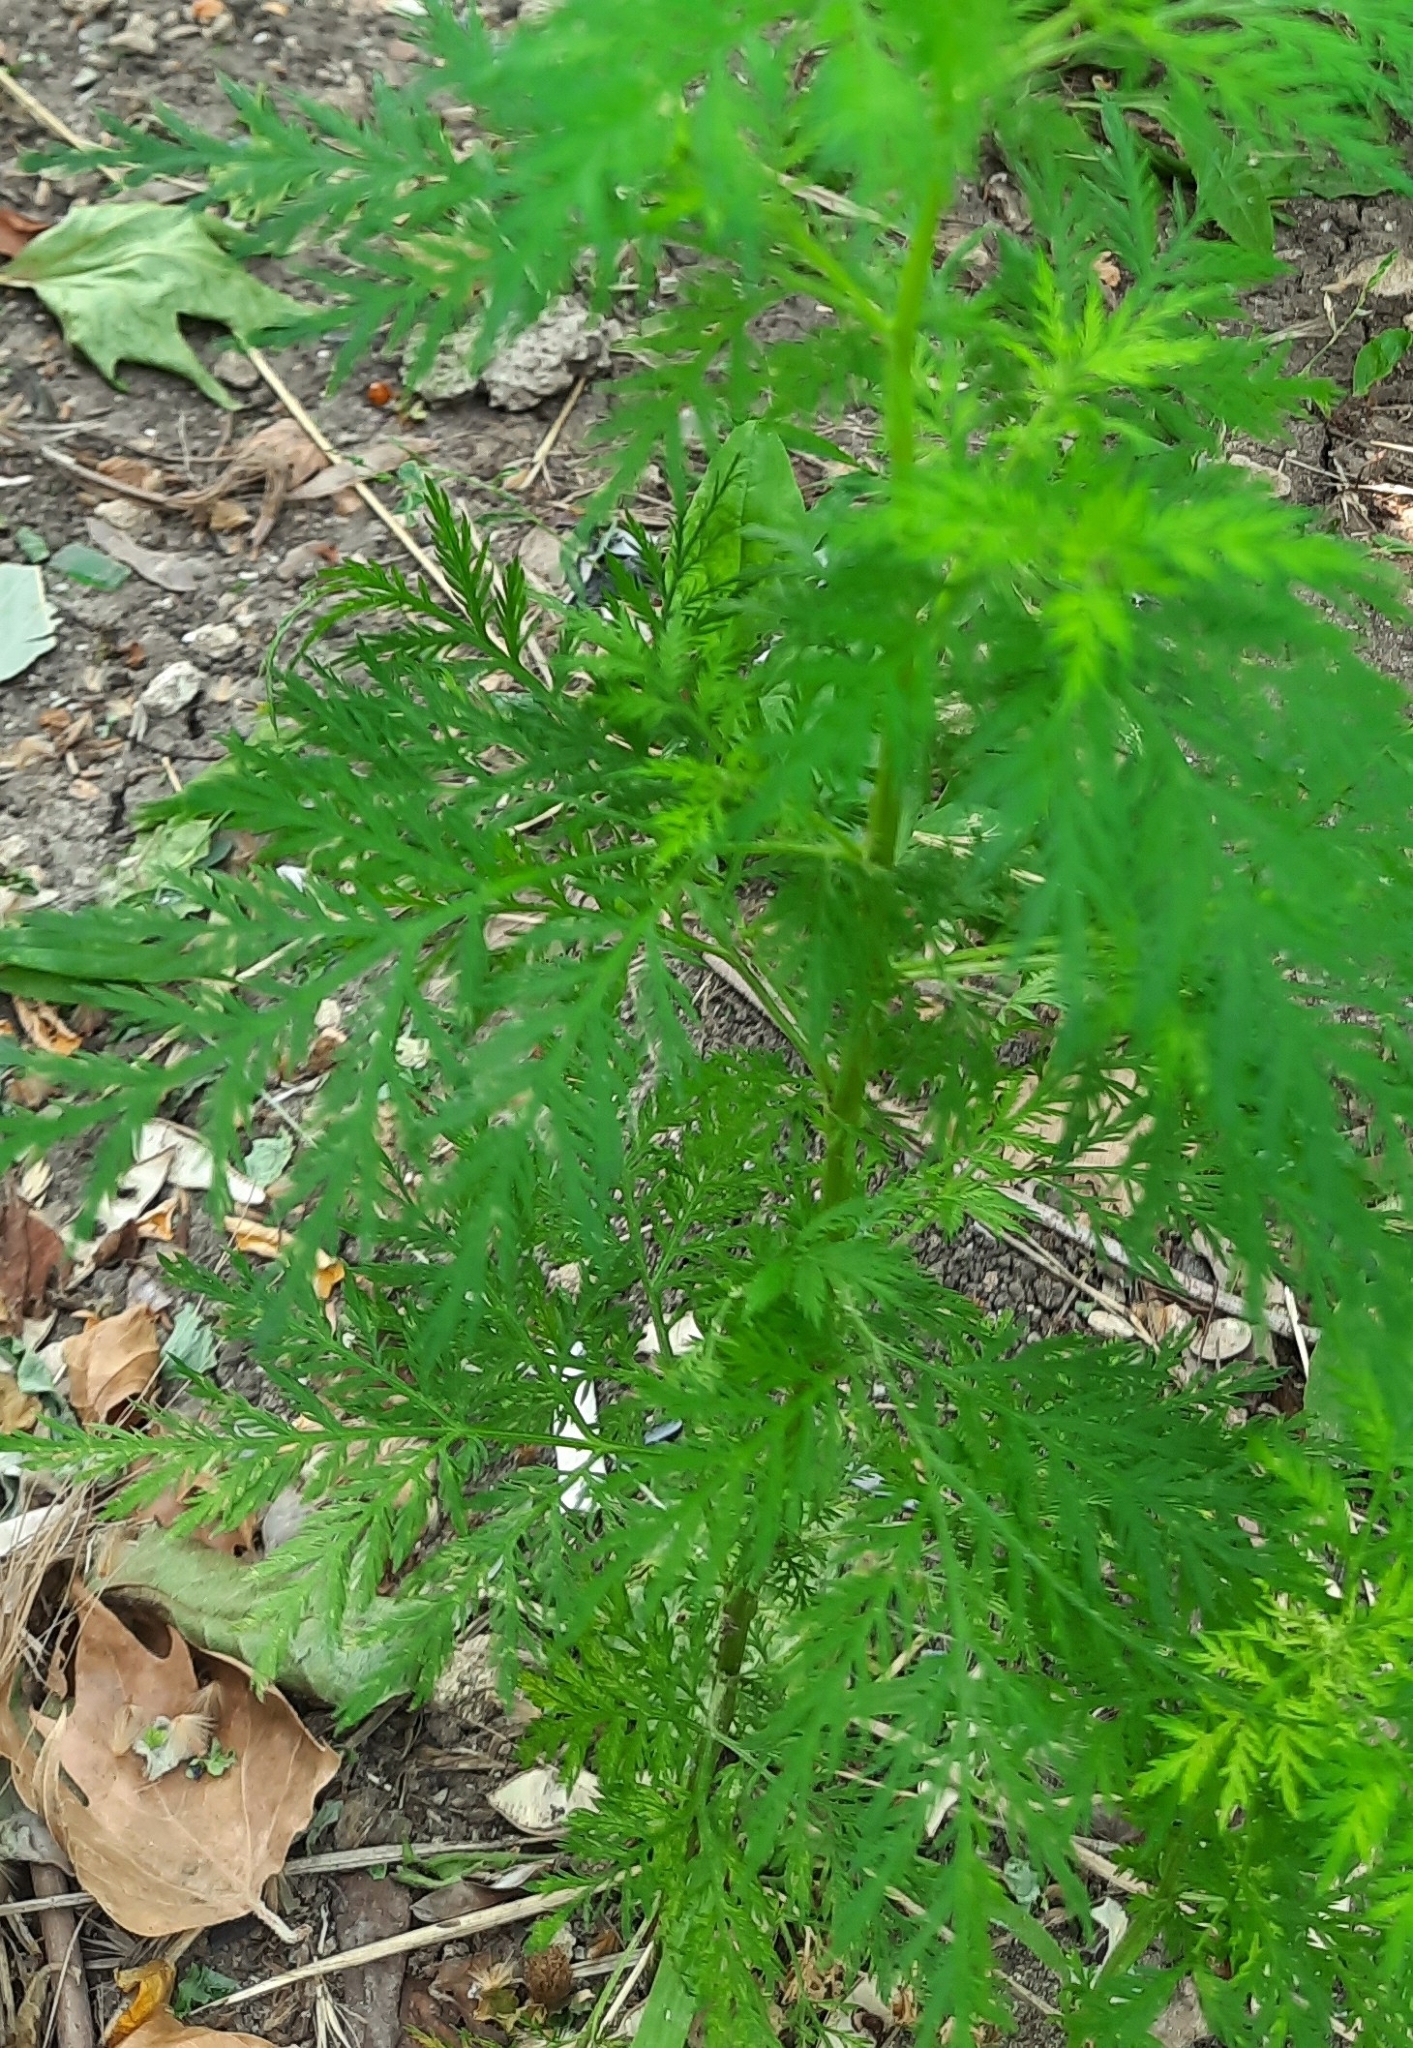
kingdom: Plantae
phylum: Tracheophyta
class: Magnoliopsida
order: Asterales
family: Asteraceae
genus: Artemisia
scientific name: Artemisia annua
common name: Sweet sagewort
